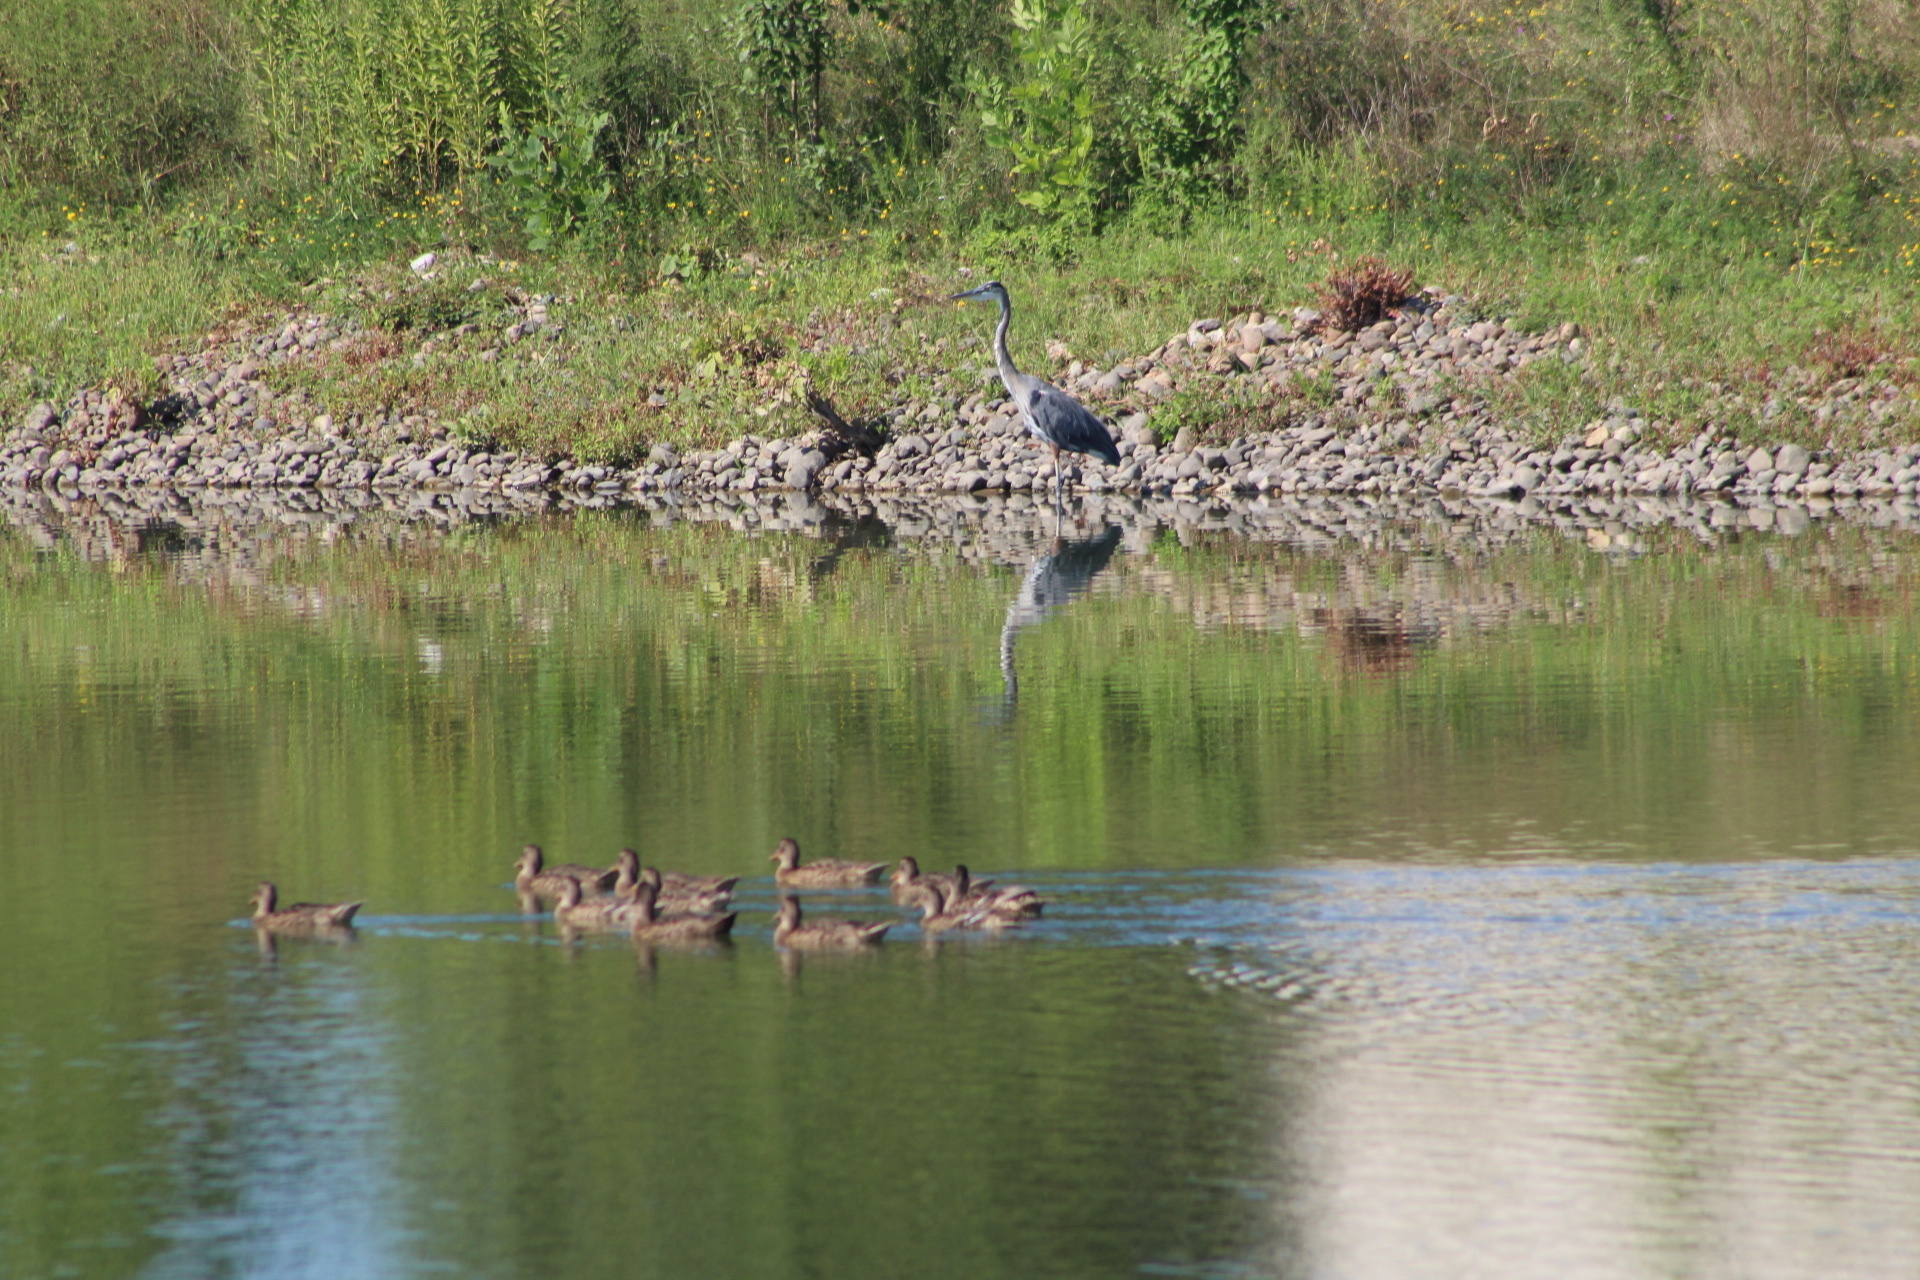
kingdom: Animalia
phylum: Chordata
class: Aves
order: Pelecaniformes
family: Ardeidae
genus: Ardea
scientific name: Ardea herodias
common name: Great blue heron
